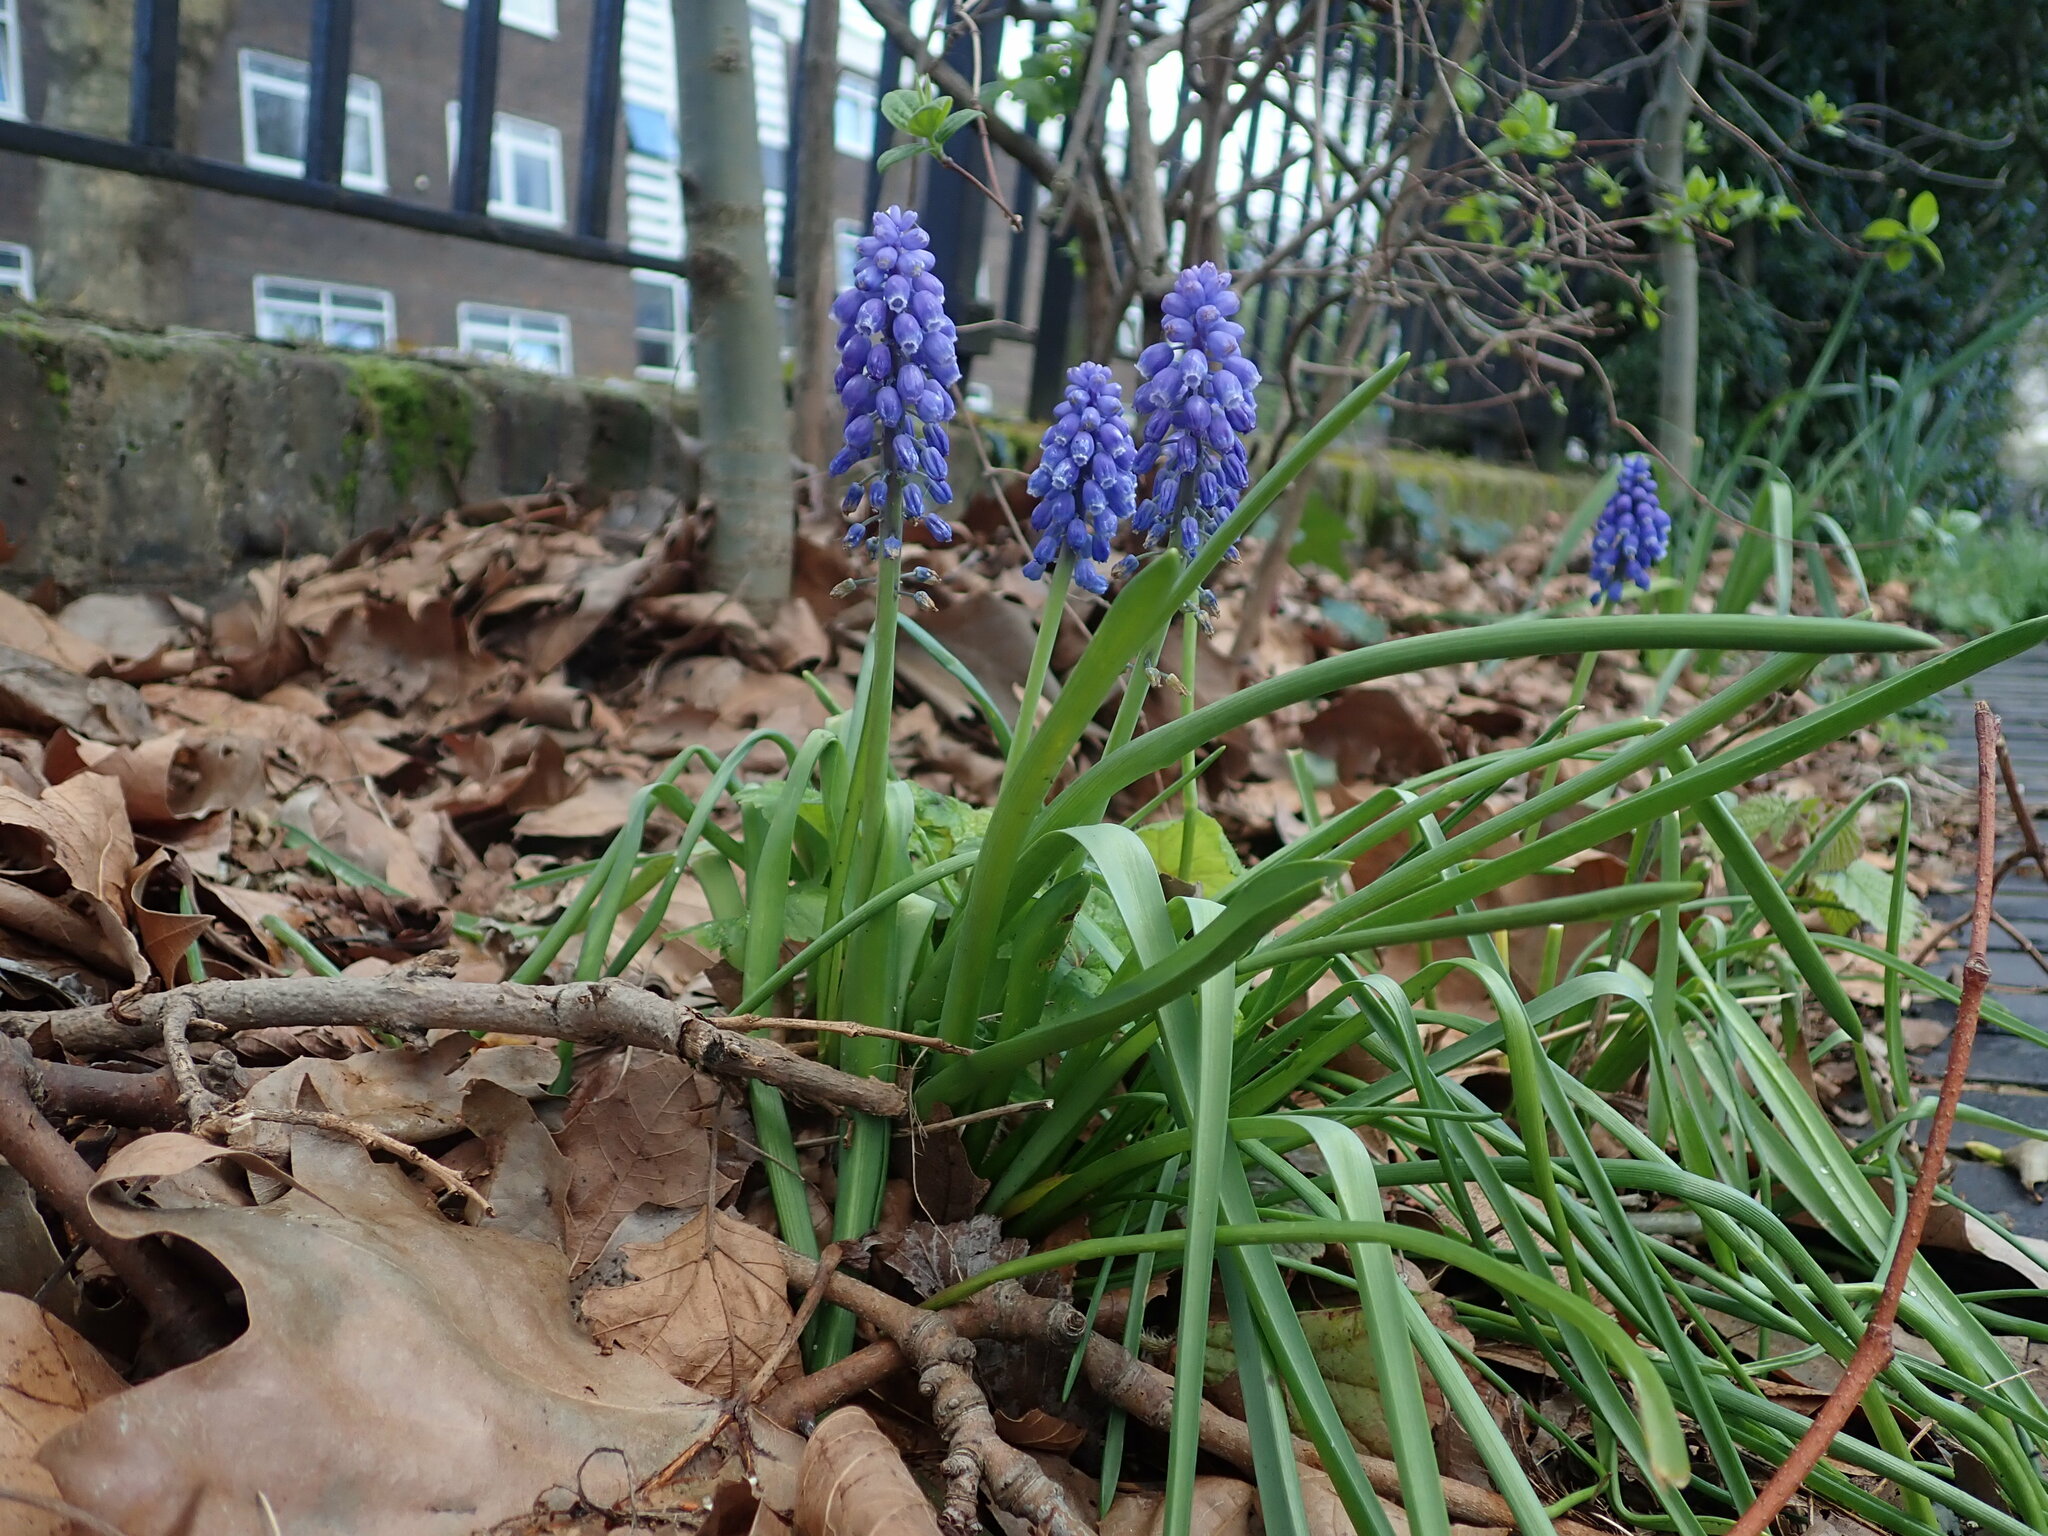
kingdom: Plantae
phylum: Tracheophyta
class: Liliopsida
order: Asparagales
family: Asparagaceae
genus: Muscari
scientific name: Muscari armeniacum
